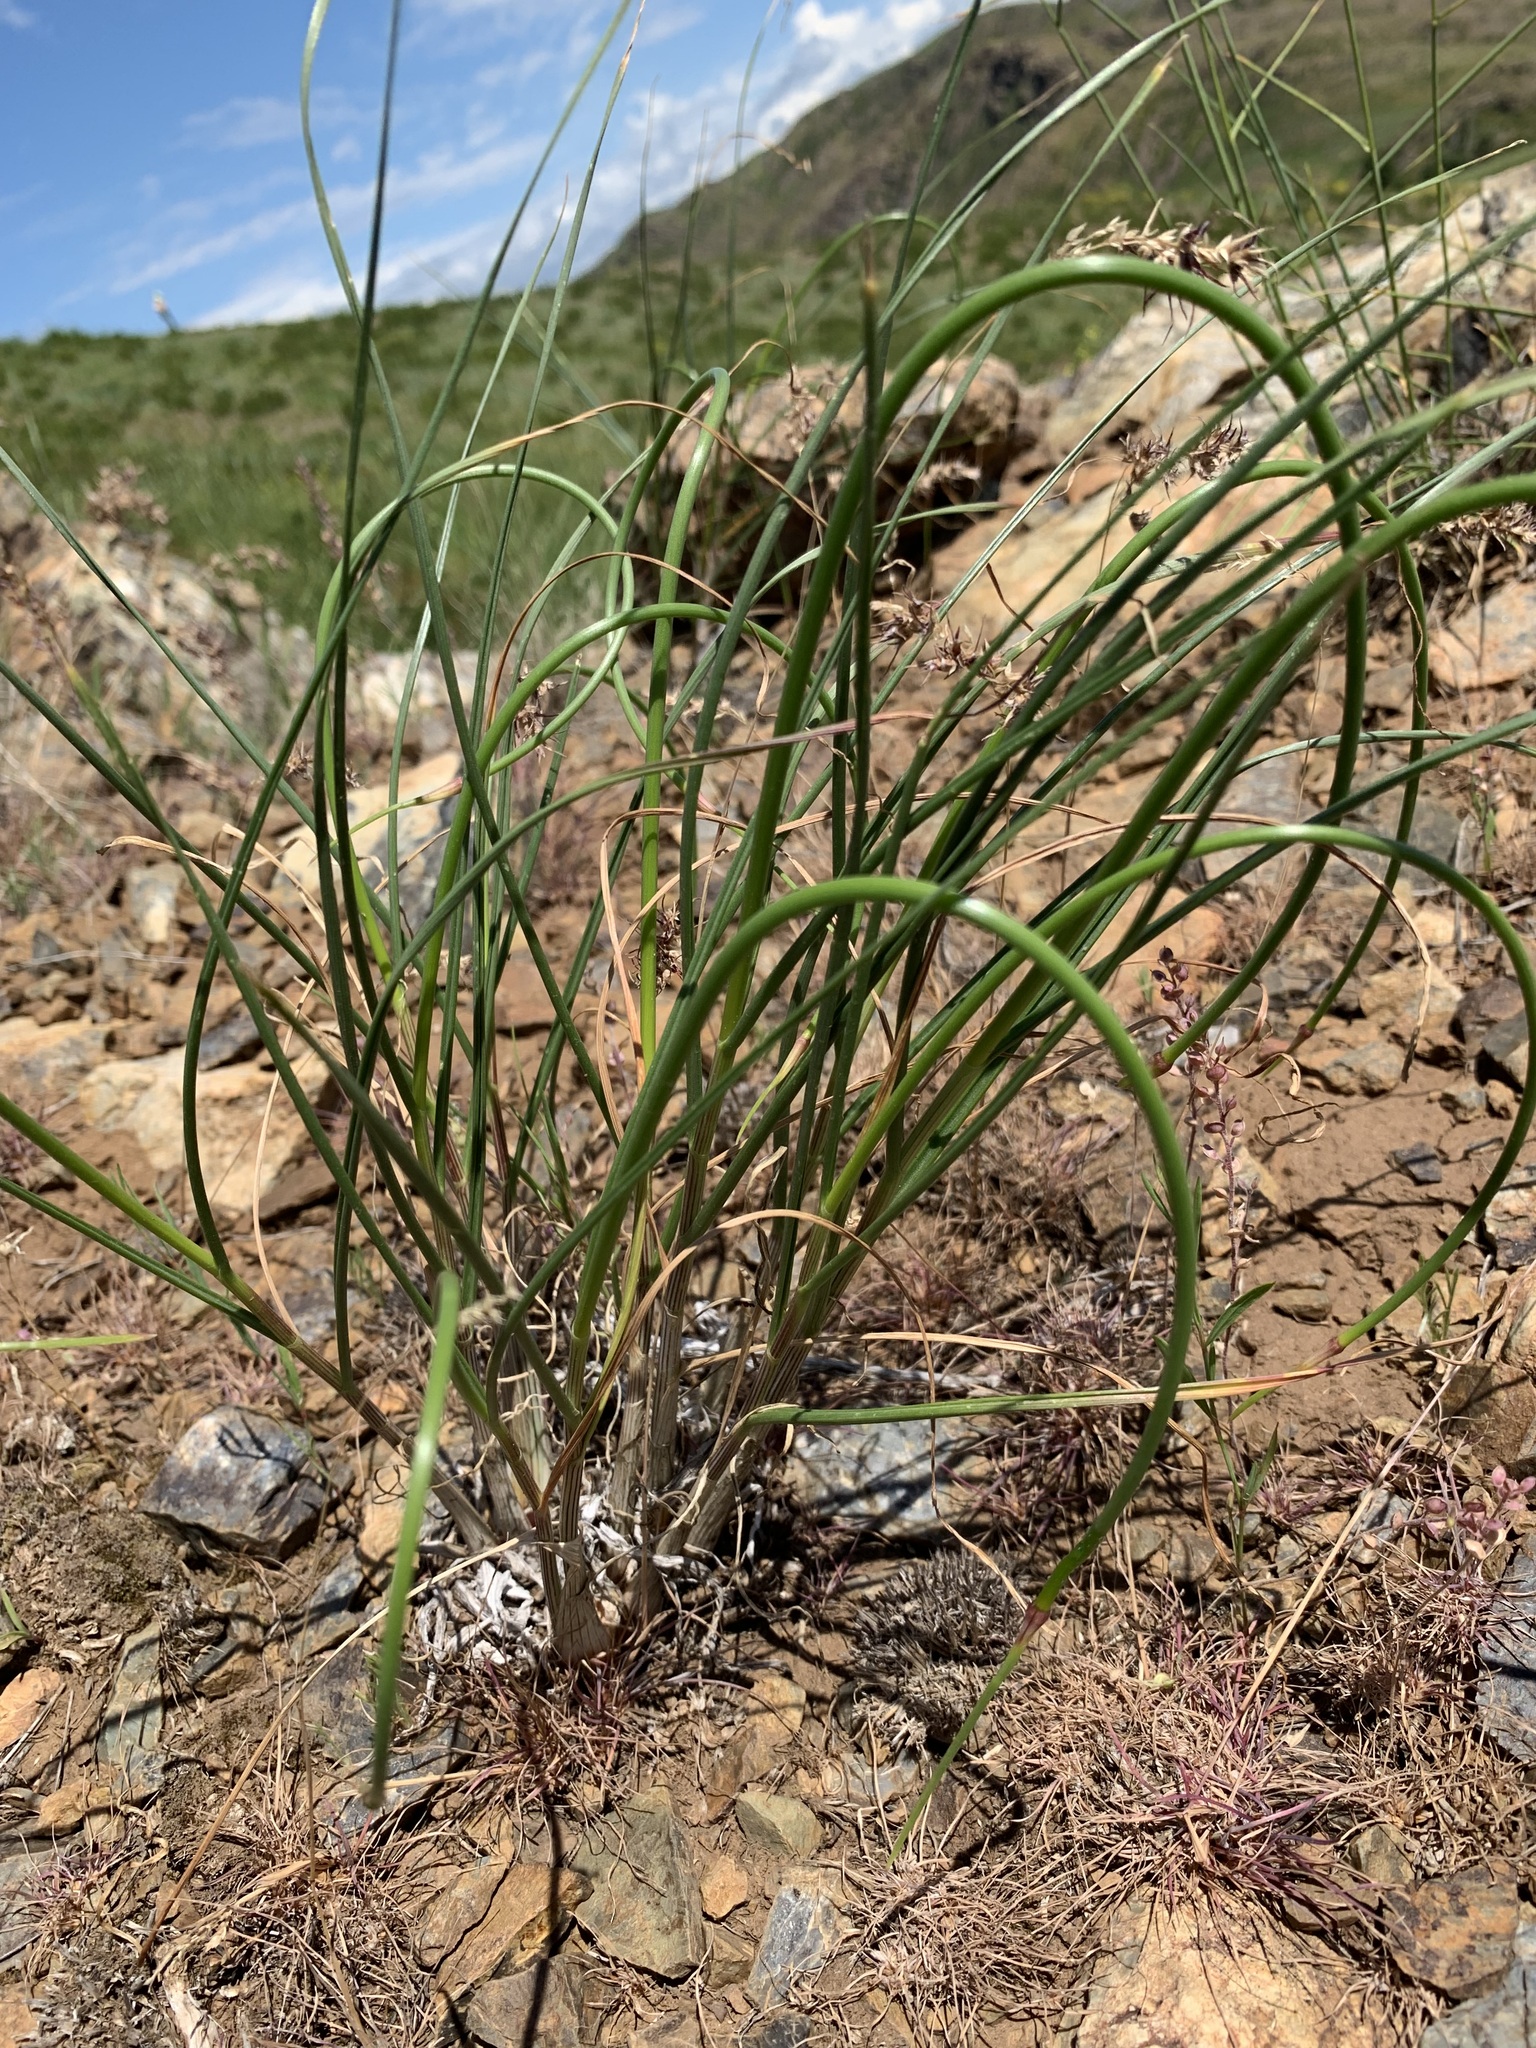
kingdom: Plantae
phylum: Tracheophyta
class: Liliopsida
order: Asparagales
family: Amaryllidaceae
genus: Allium
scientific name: Allium cretaceum
